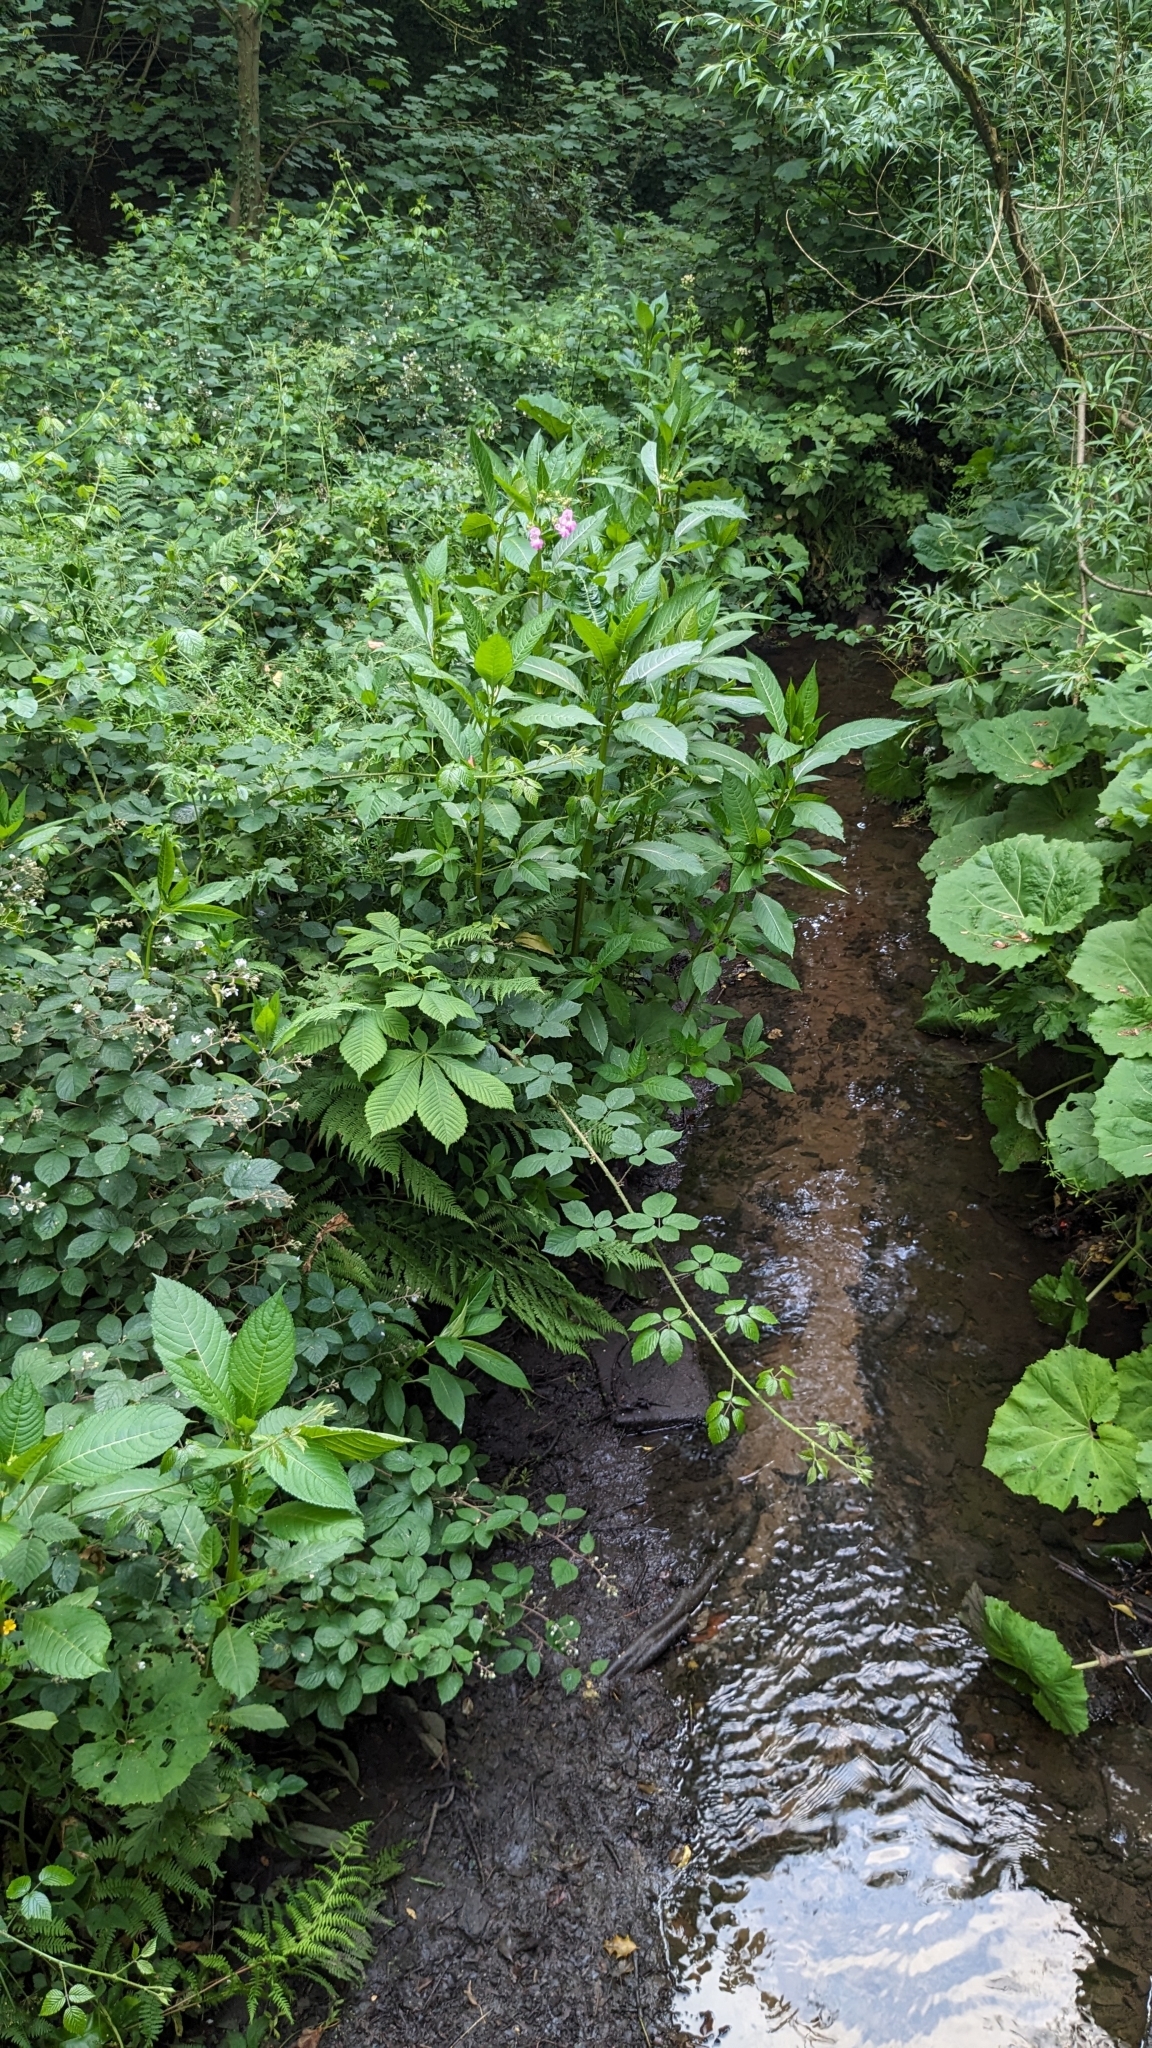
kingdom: Plantae
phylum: Tracheophyta
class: Magnoliopsida
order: Ericales
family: Balsaminaceae
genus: Impatiens
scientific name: Impatiens glandulifera
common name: Himalayan balsam
